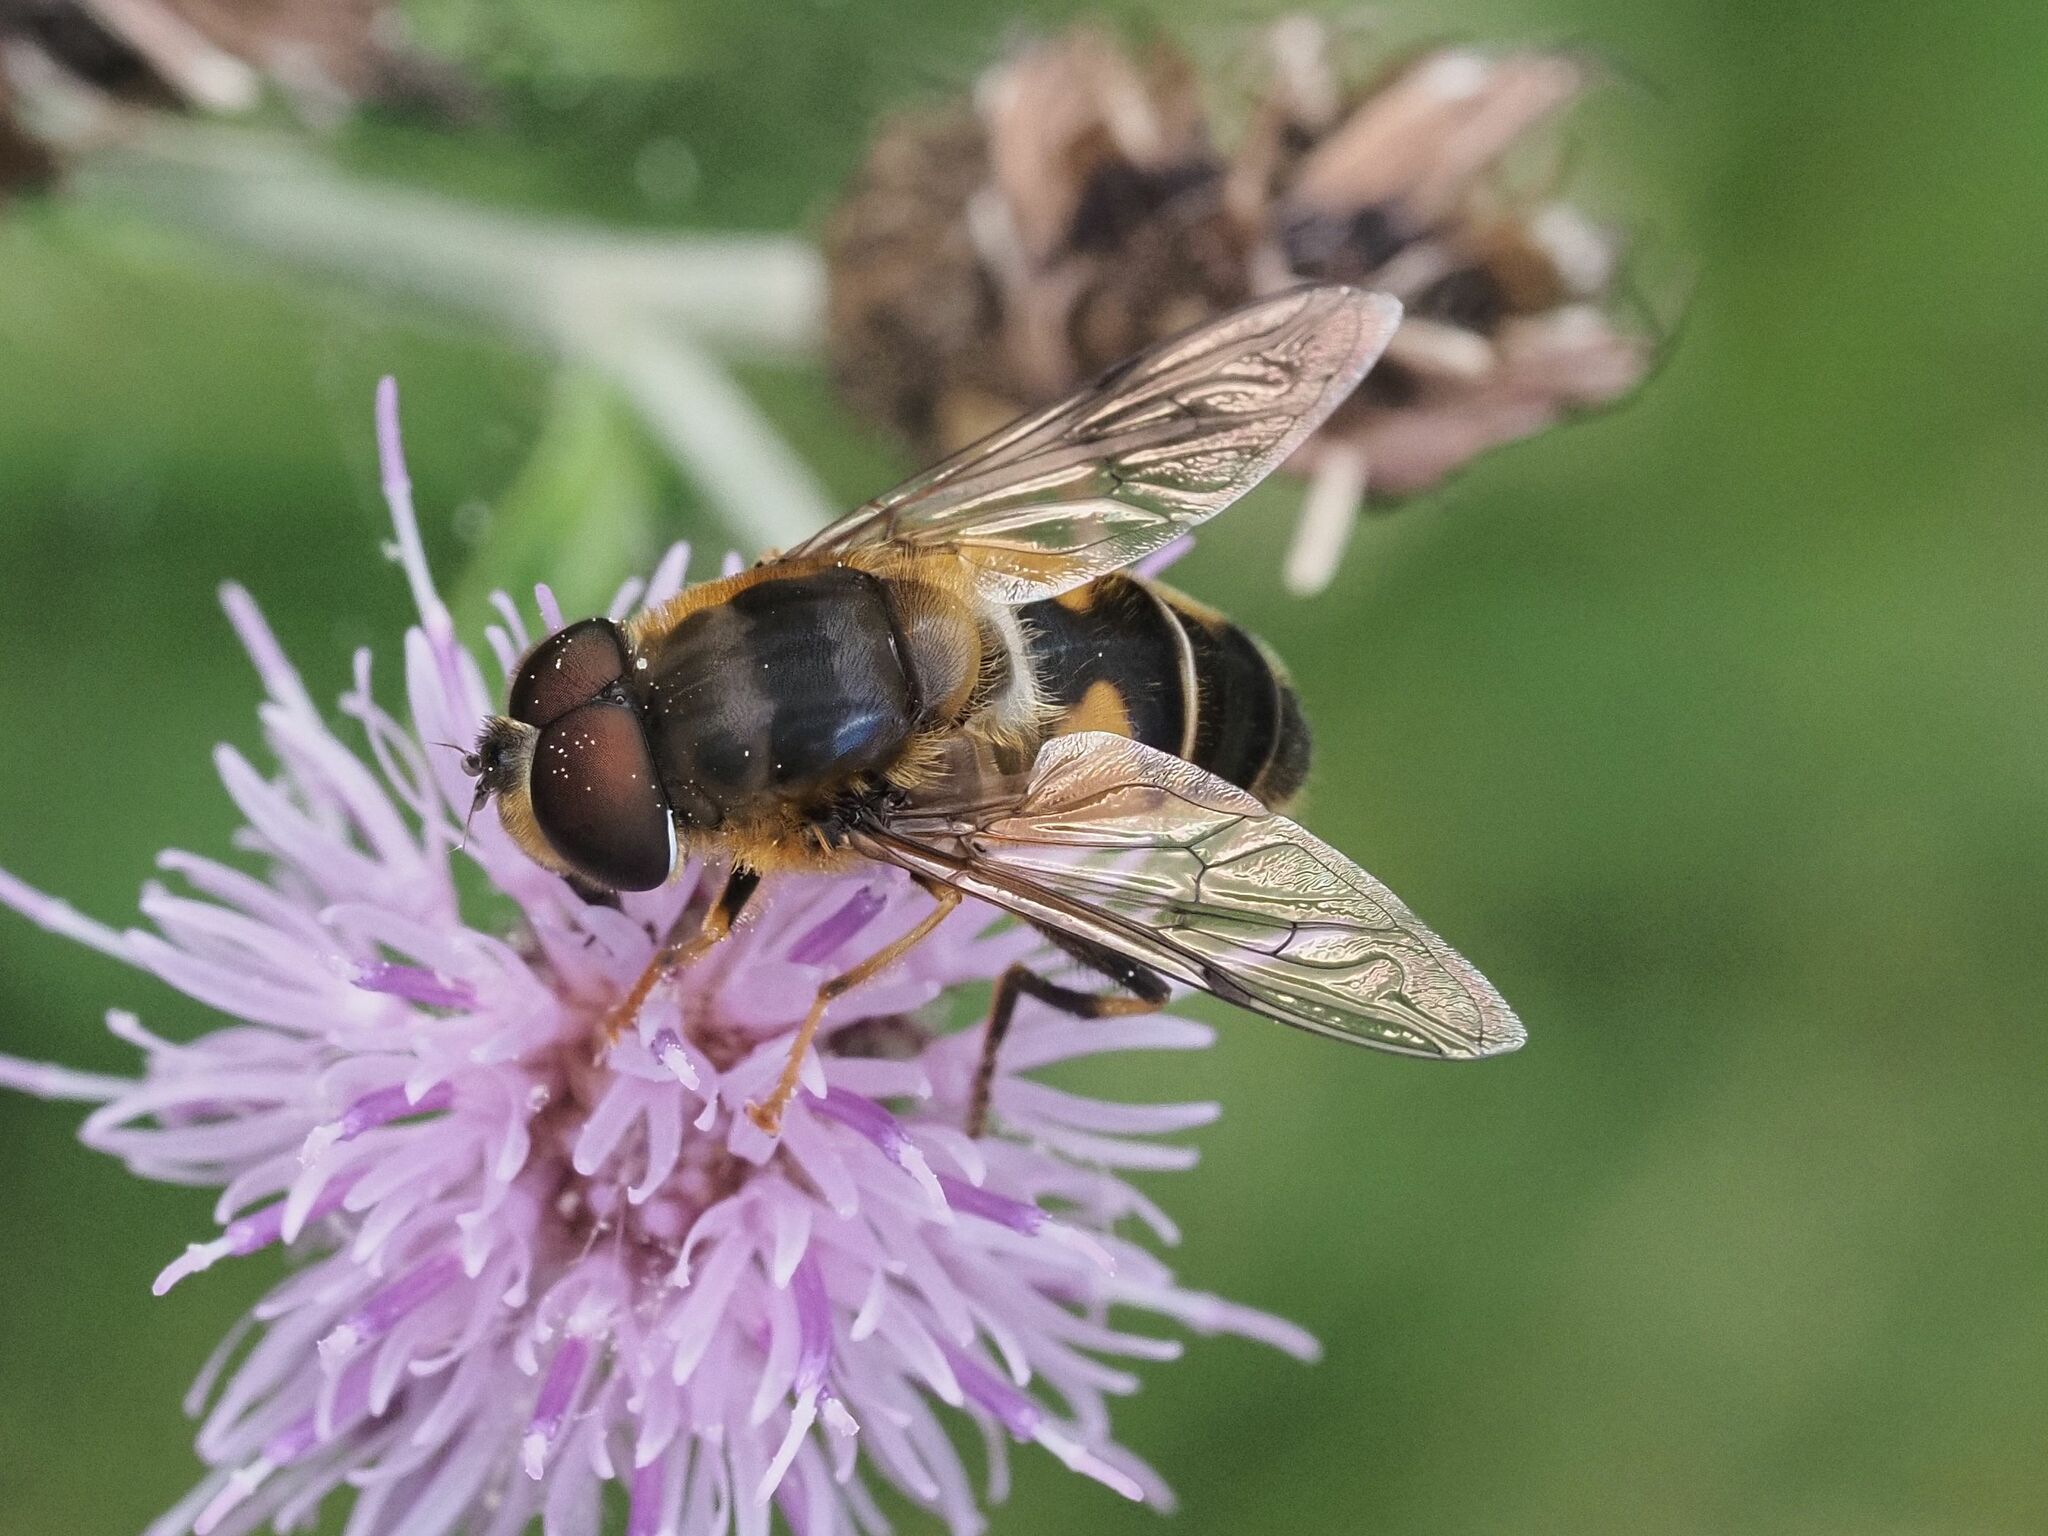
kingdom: Animalia
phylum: Arthropoda
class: Insecta
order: Diptera
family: Syrphidae
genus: Eristalis
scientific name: Eristalis pertinax
